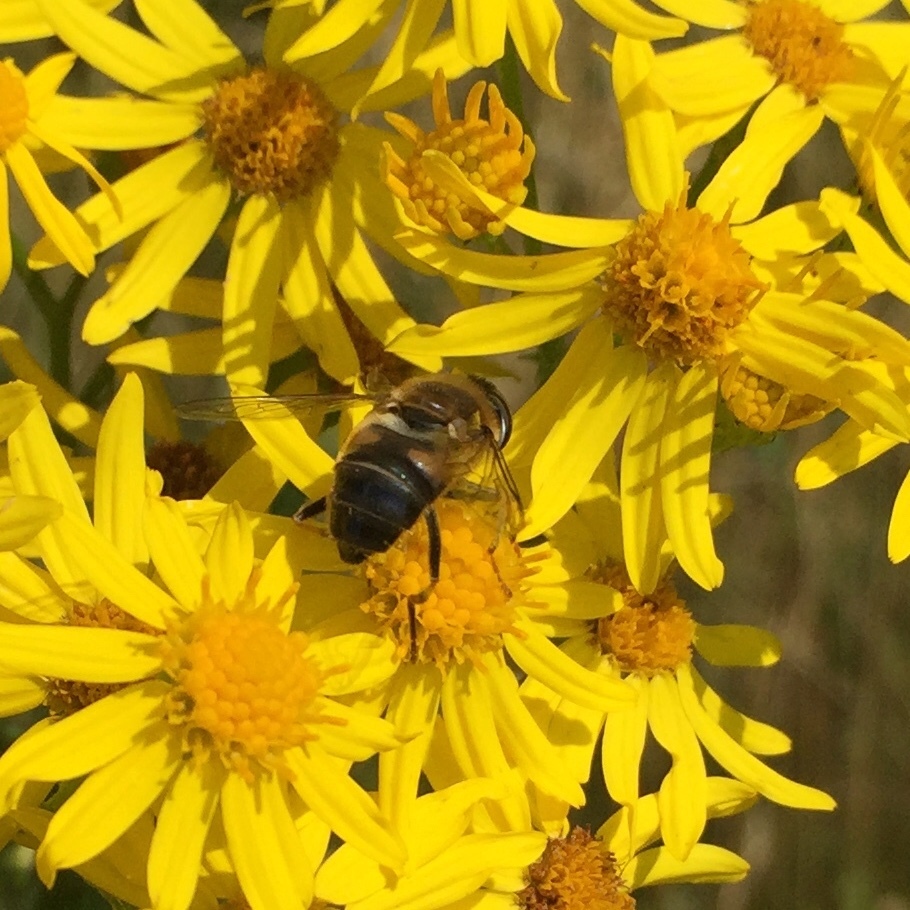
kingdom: Animalia
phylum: Arthropoda
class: Insecta
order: Diptera
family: Syrphidae
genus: Eristalis
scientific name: Eristalis pertinax
